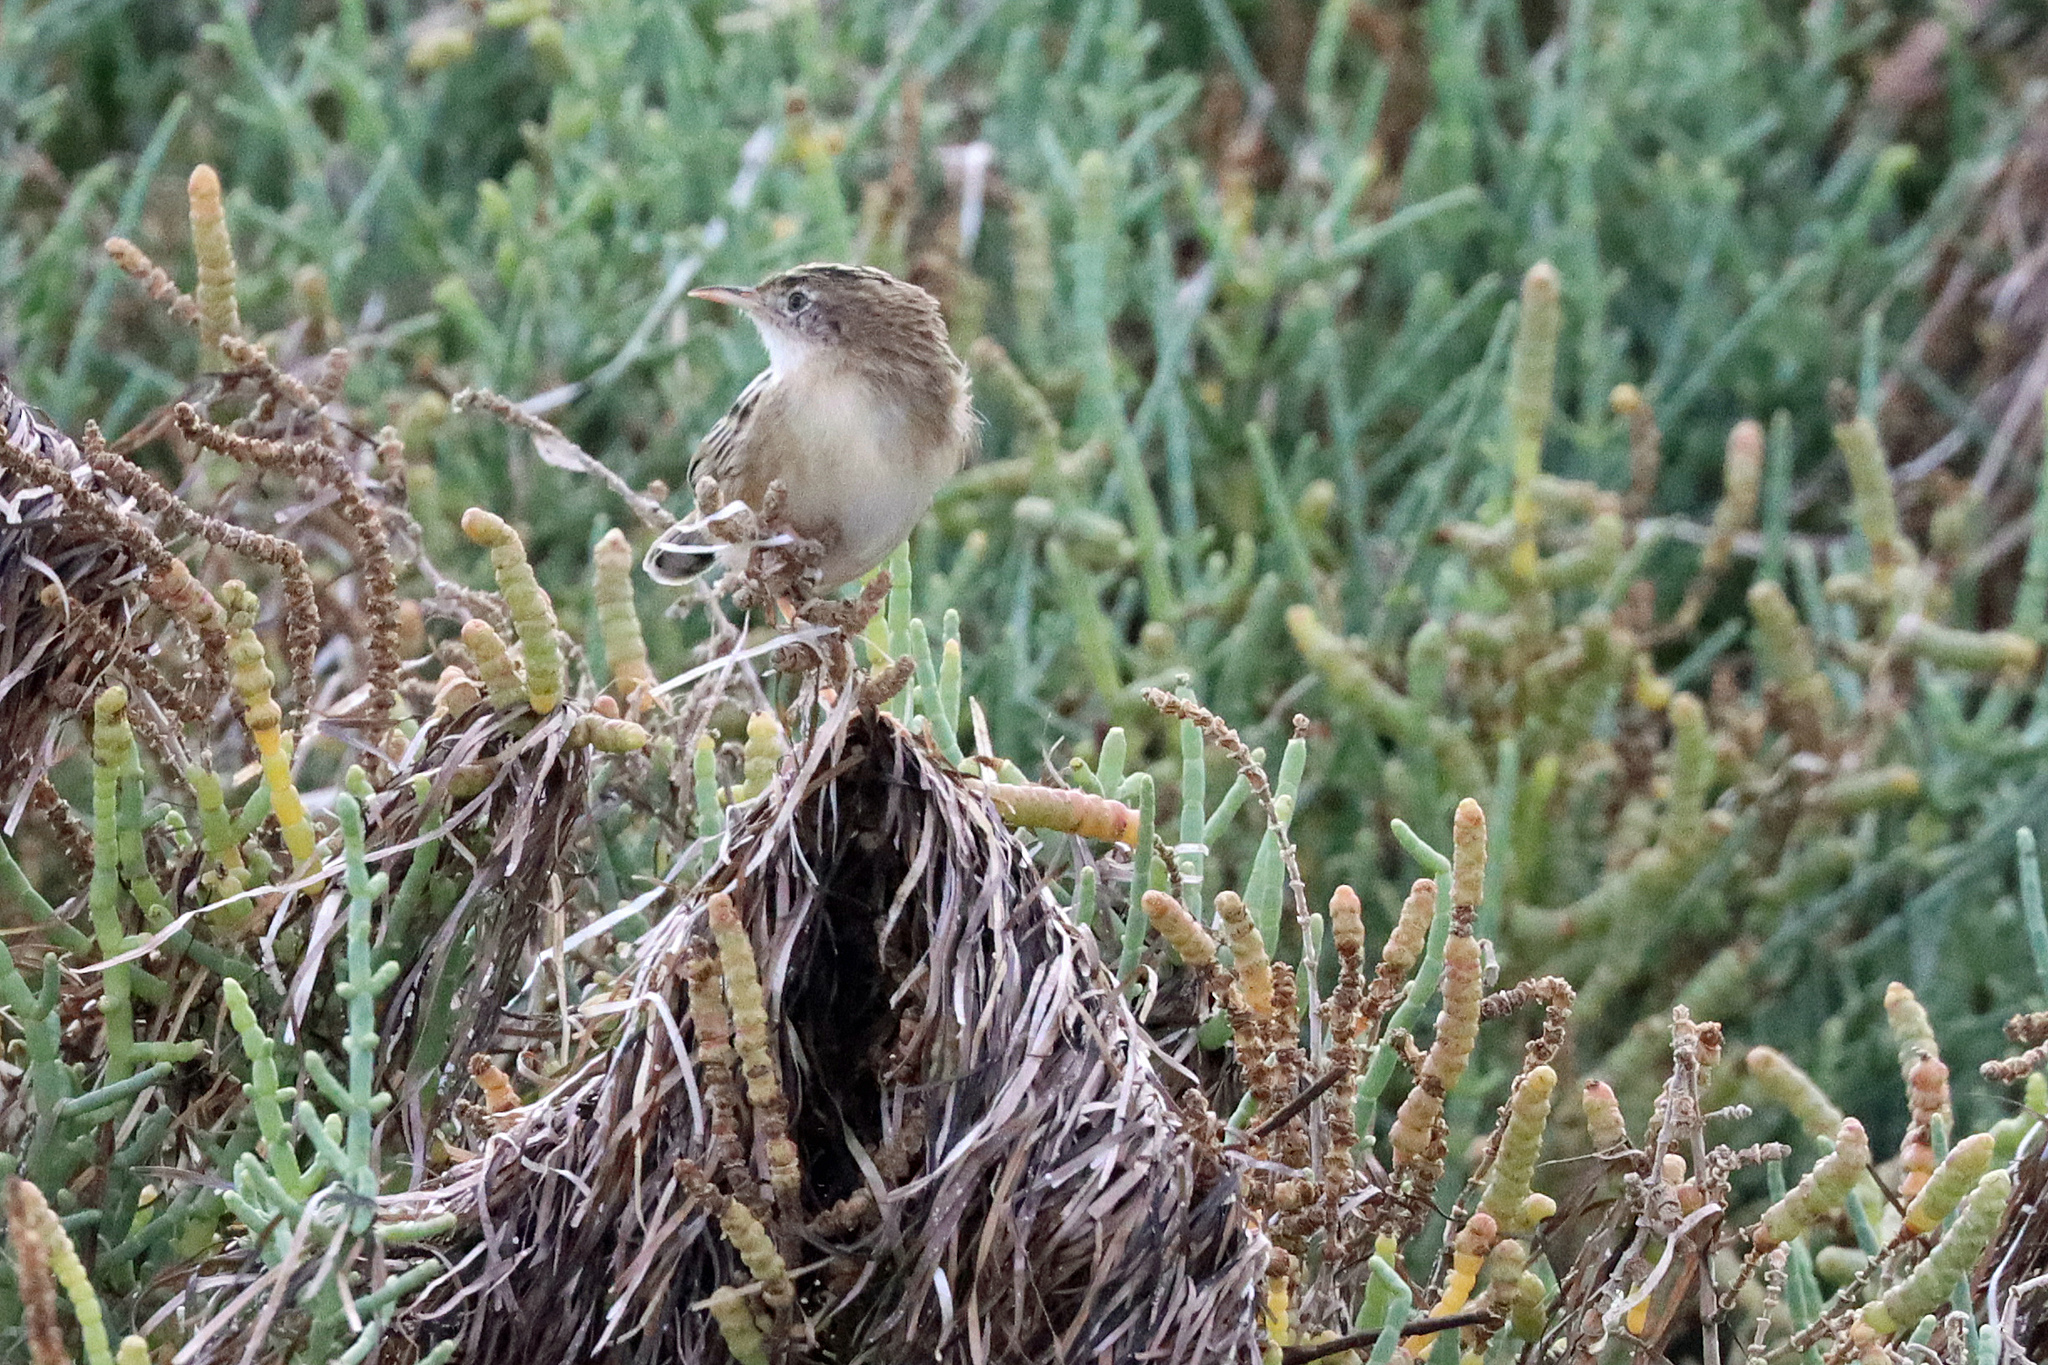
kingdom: Animalia
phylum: Chordata
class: Aves
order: Passeriformes
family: Cisticolidae
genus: Cisticola
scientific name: Cisticola juncidis
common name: Zitting cisticola
